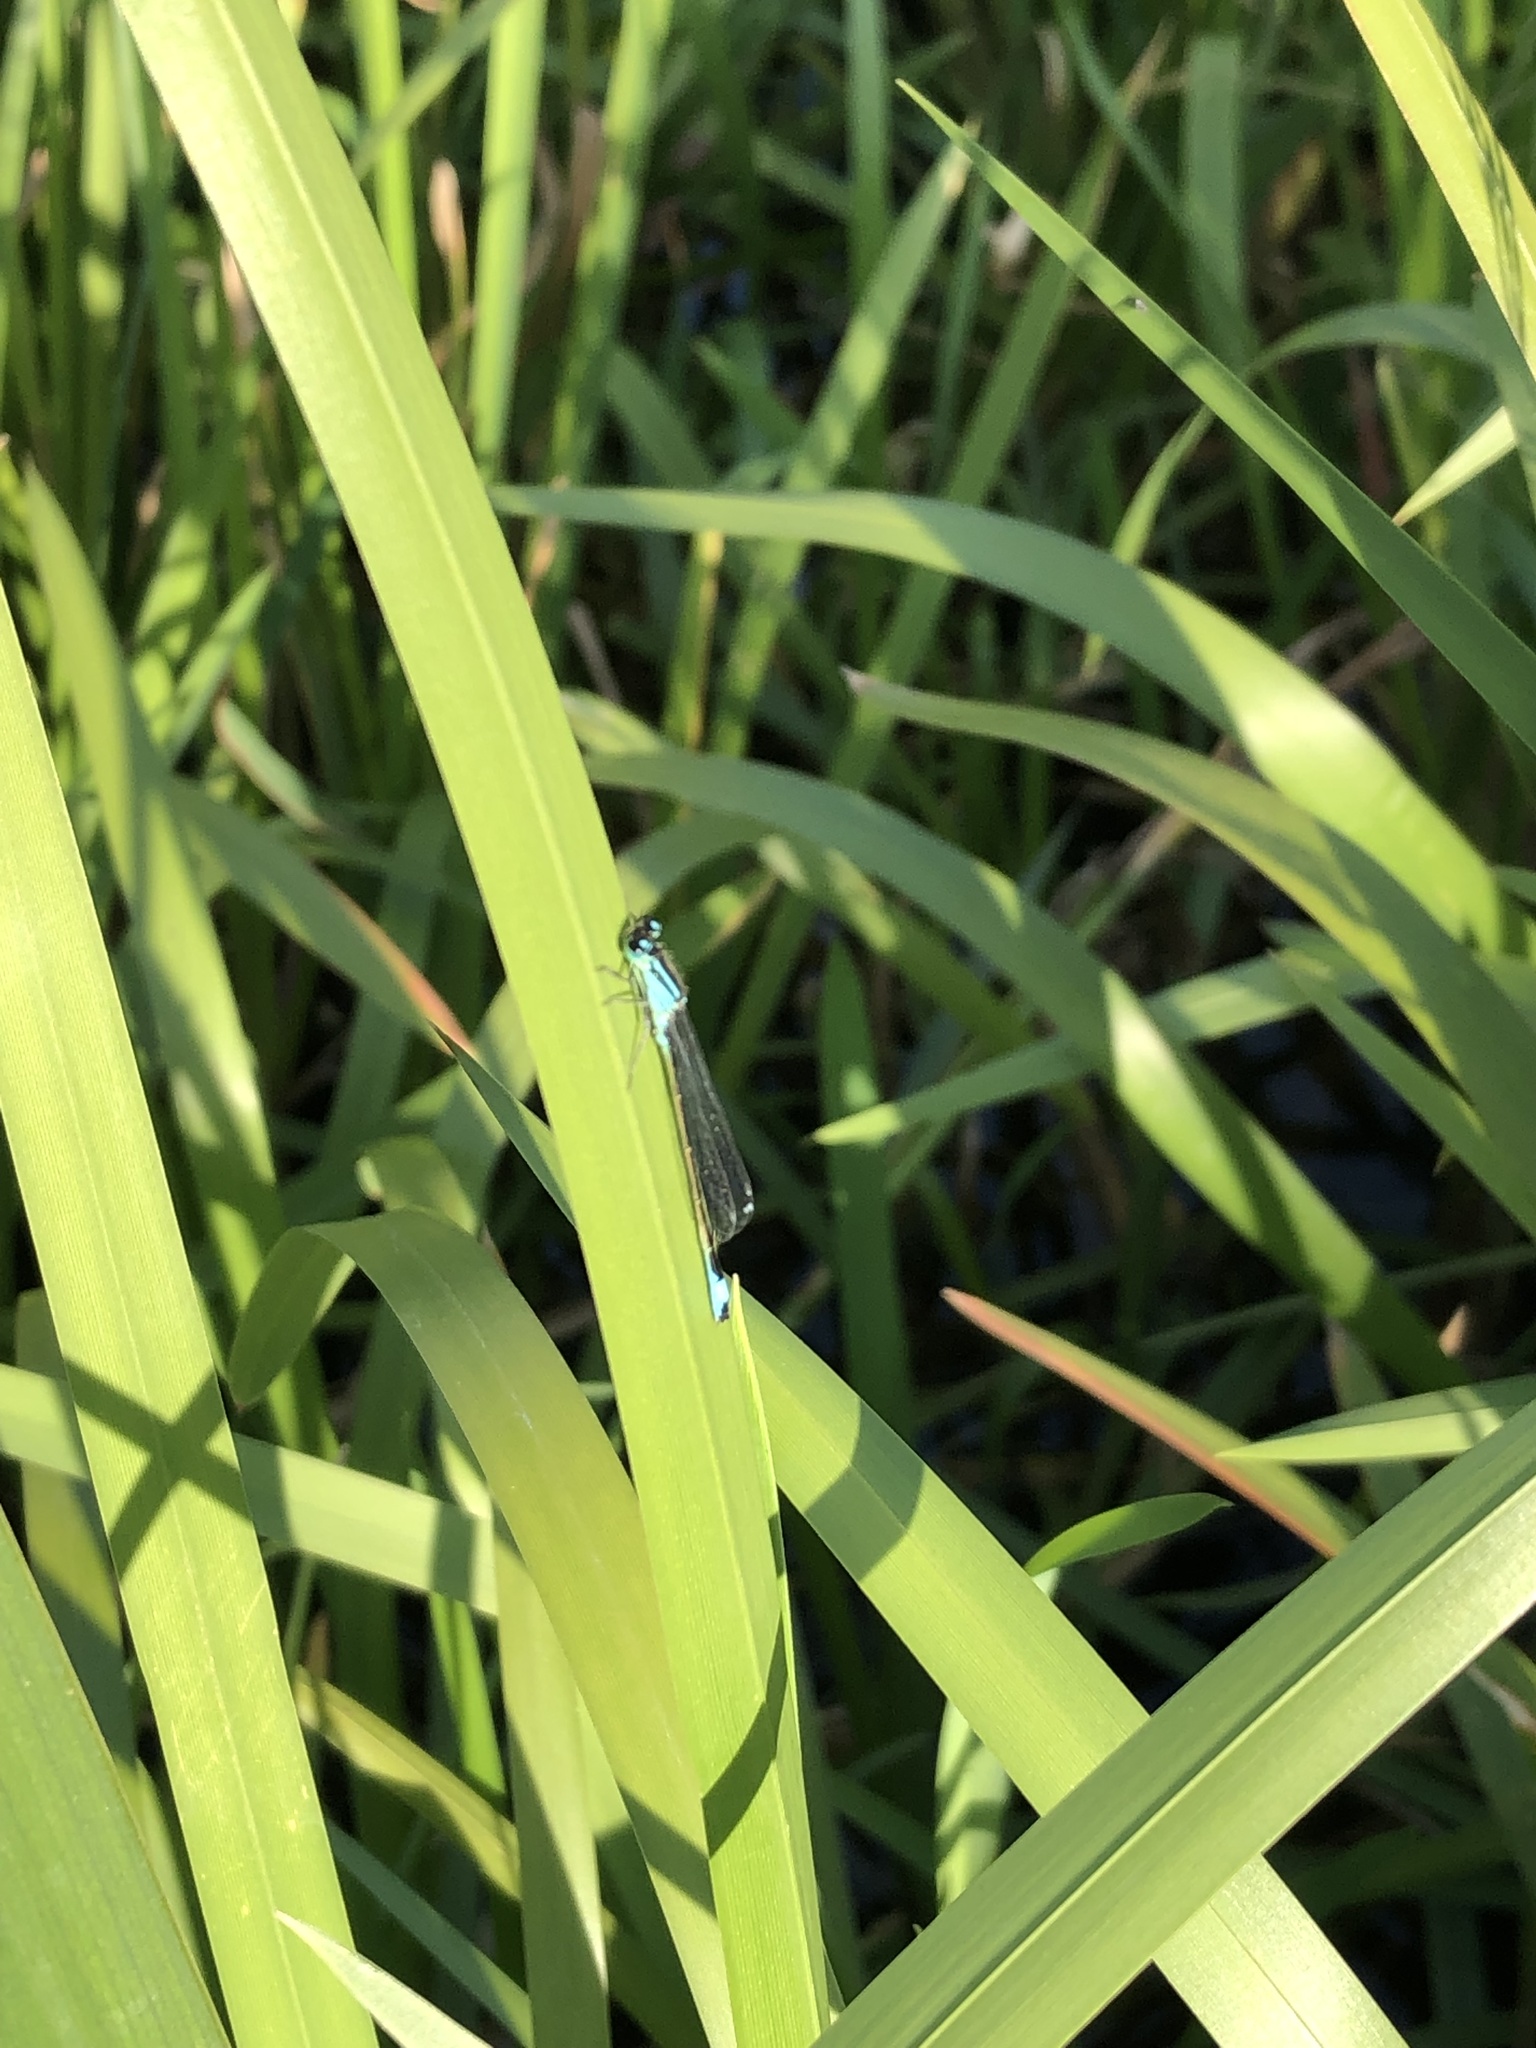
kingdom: Animalia
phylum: Arthropoda
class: Insecta
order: Odonata
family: Coenagrionidae
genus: Ischnura
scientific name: Ischnura elegans
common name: Blue-tailed damselfly
